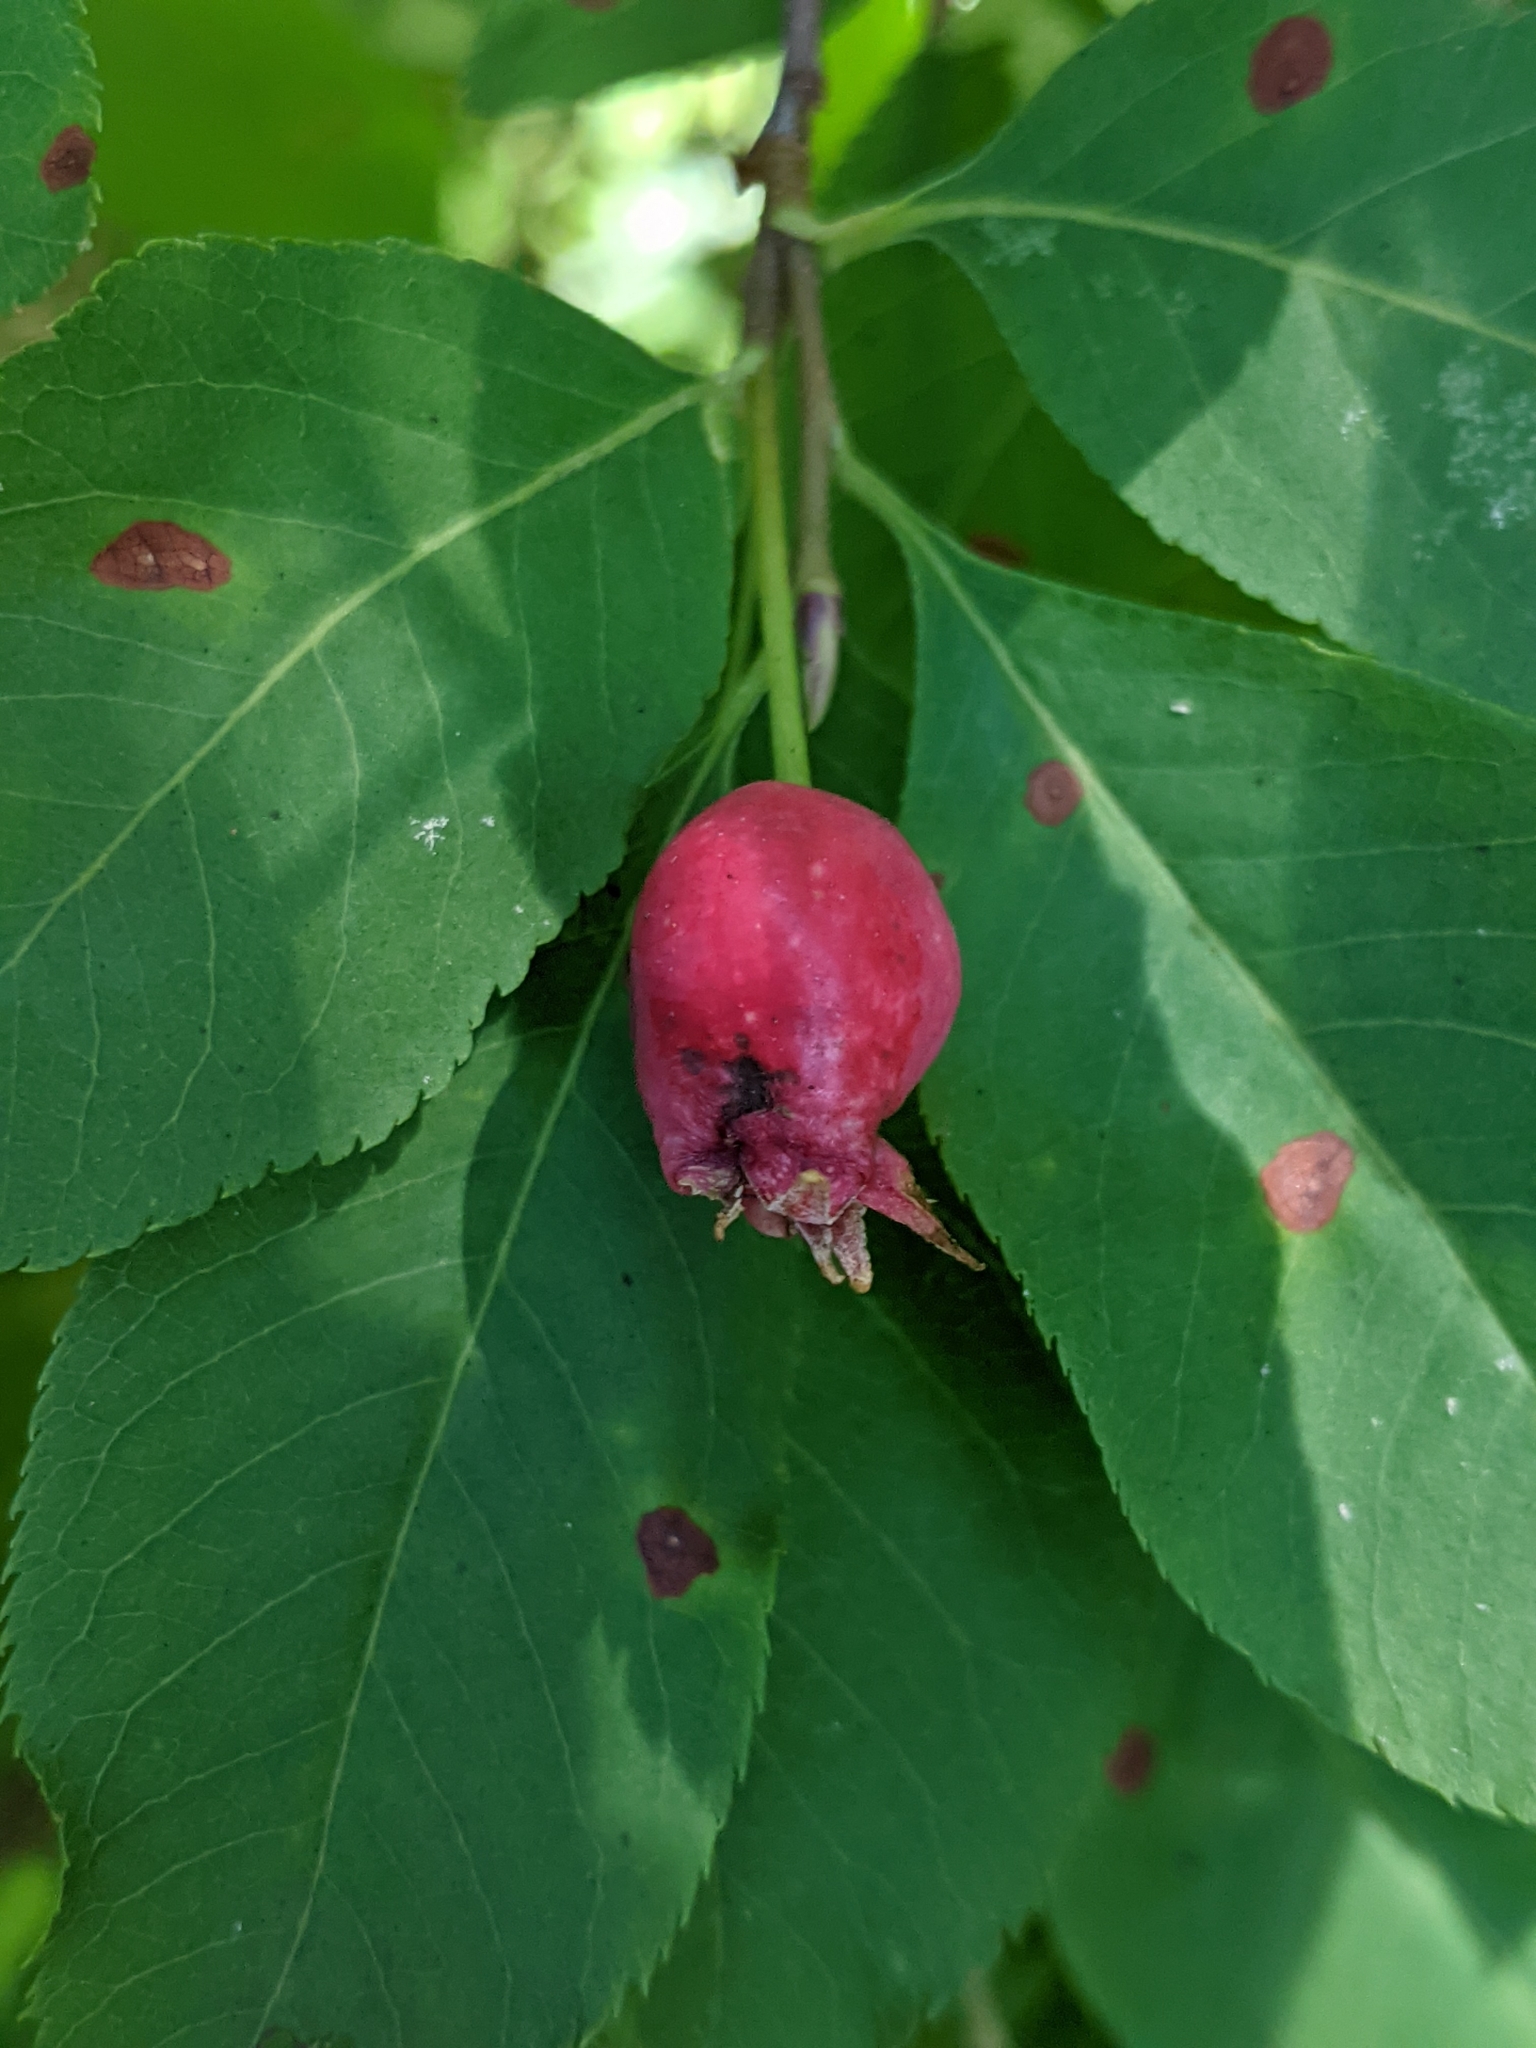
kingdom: Plantae
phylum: Tracheophyta
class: Magnoliopsida
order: Rosales
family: Rosaceae
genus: Amelanchier
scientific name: Amelanchier bartramiana
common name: Mountain serviceberry
